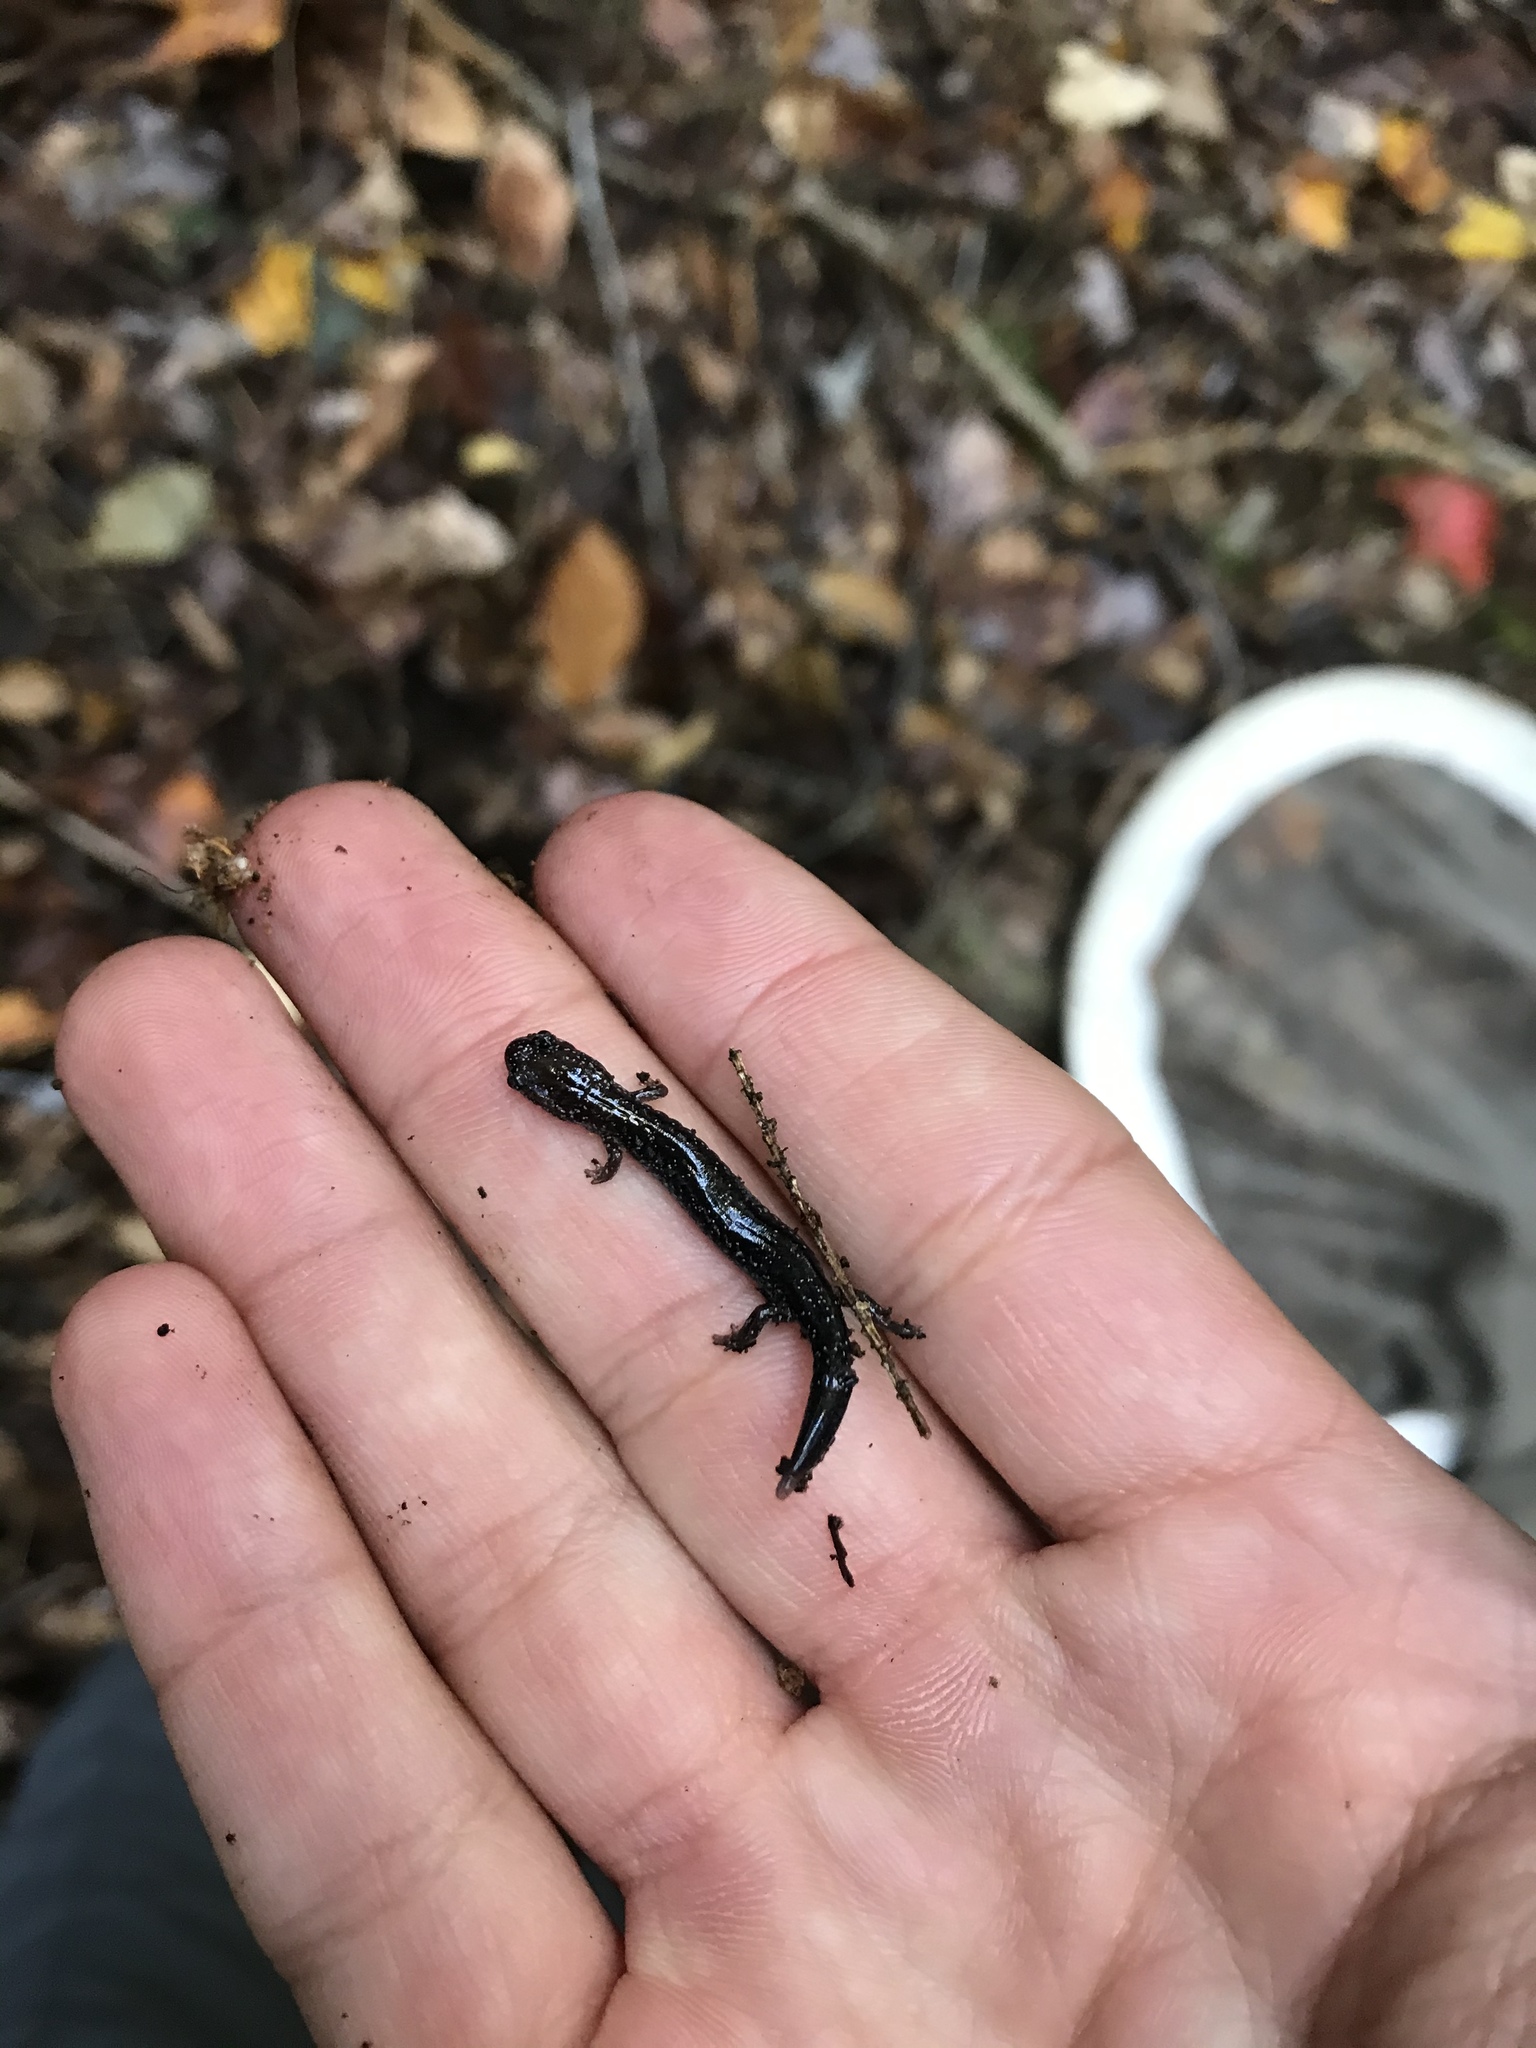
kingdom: Animalia
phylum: Chordata
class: Amphibia
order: Caudata
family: Plethodontidae
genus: Plethodon
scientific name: Plethodon cinereus
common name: Redback salamander
